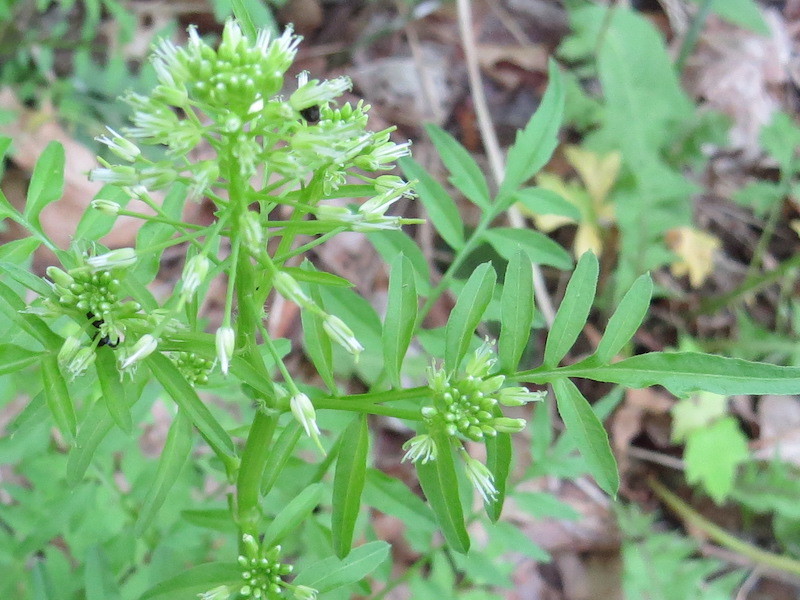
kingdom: Plantae
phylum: Tracheophyta
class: Magnoliopsida
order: Brassicales
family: Brassicaceae
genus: Cardamine
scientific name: Cardamine impatiens
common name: Narrow-leaved bitter-cress
